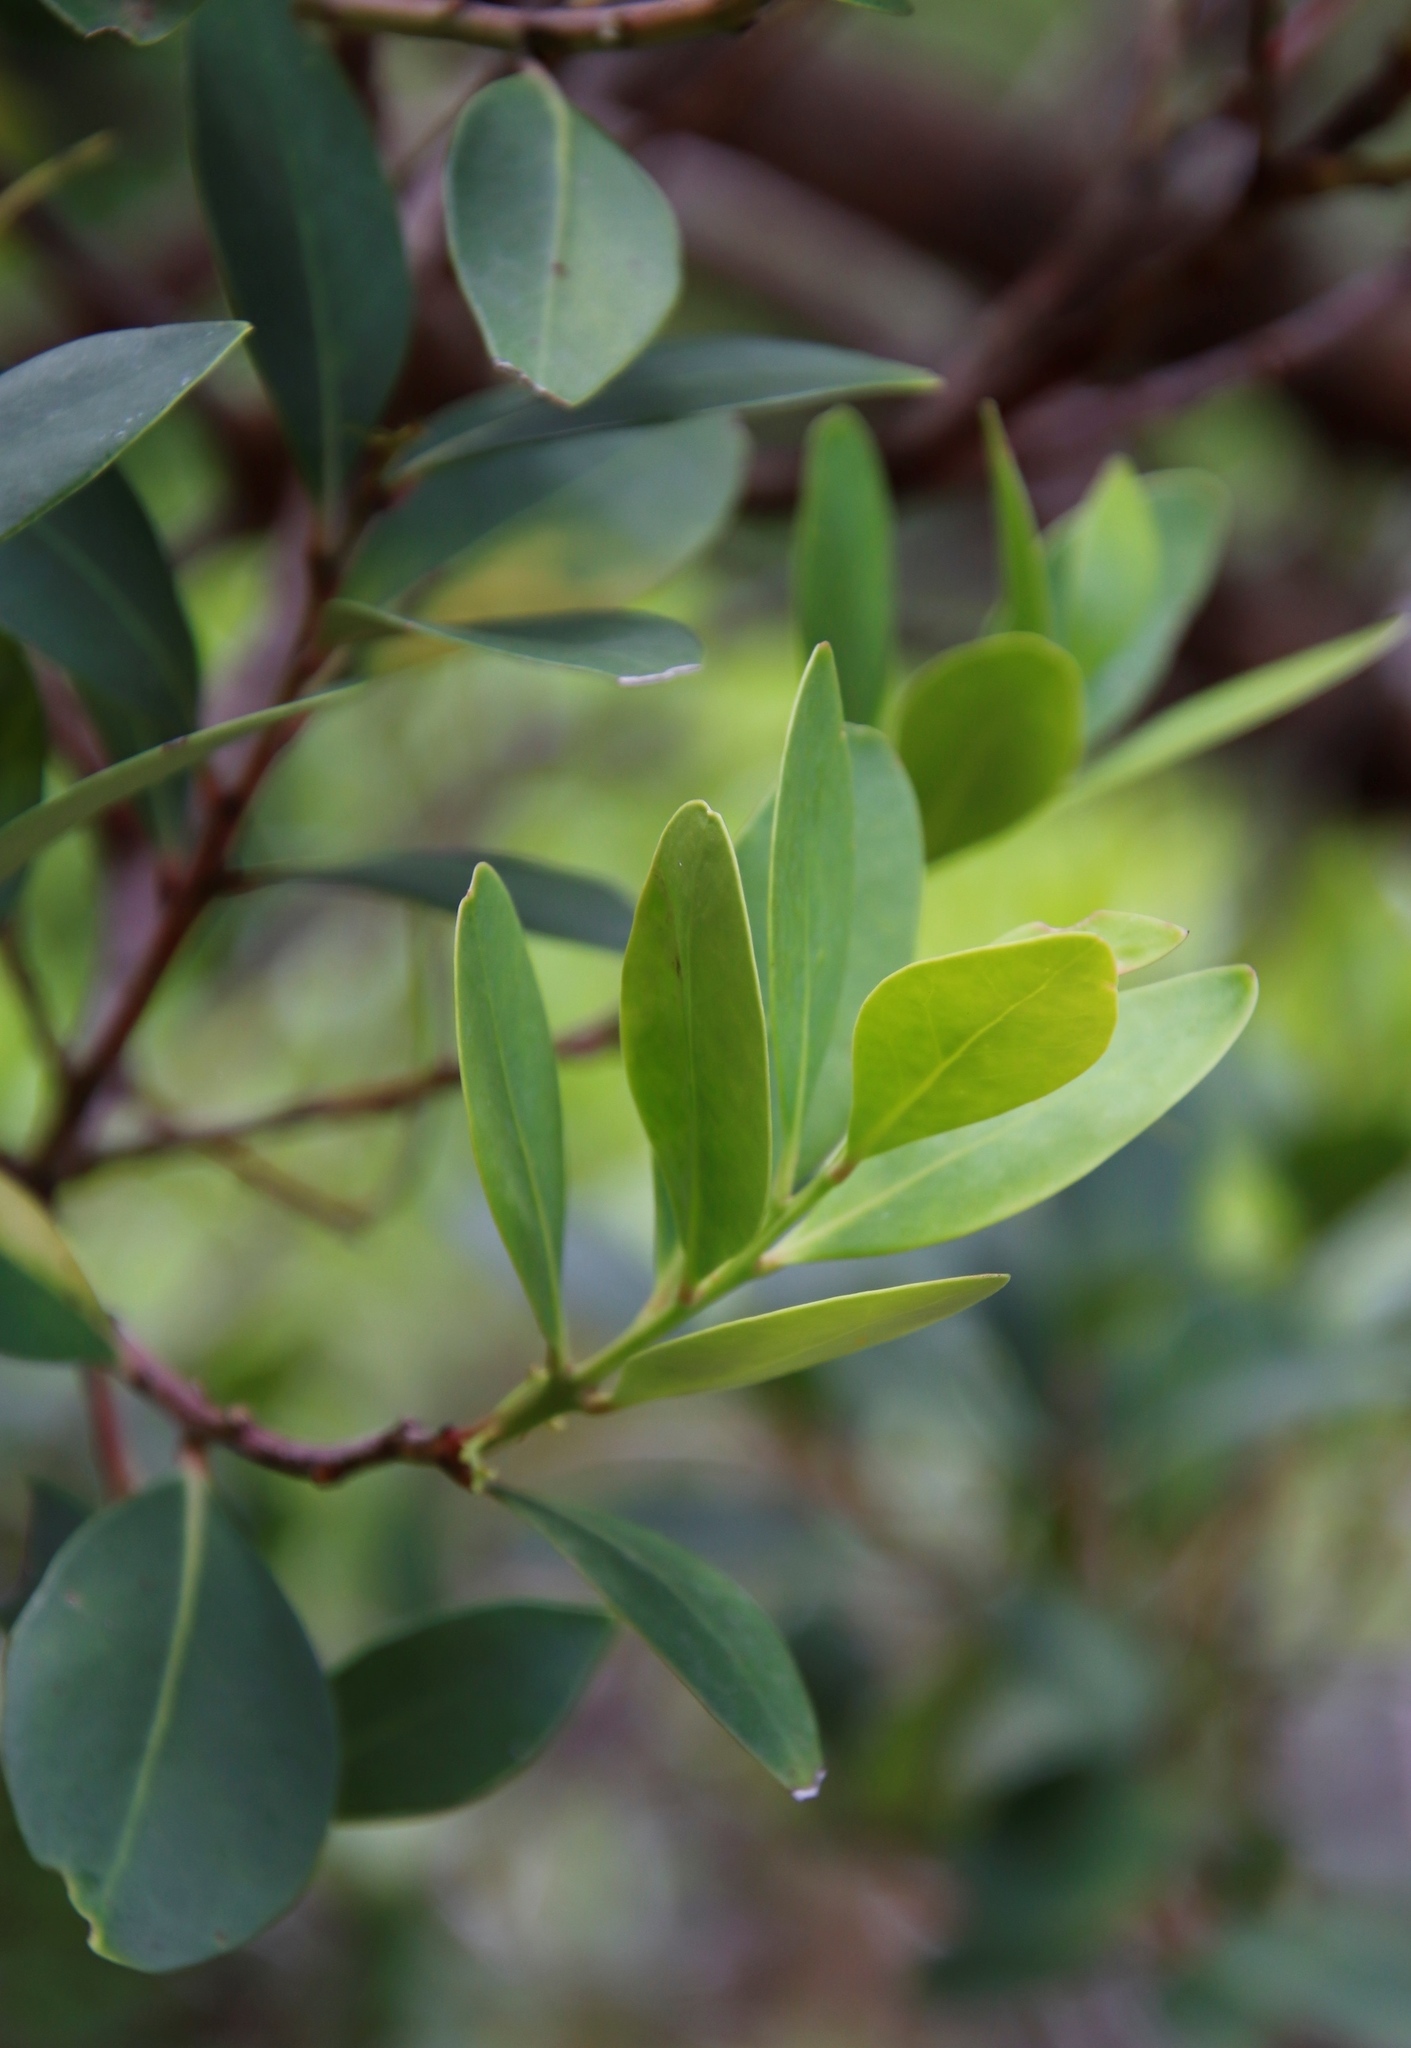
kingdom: Plantae
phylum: Tracheophyta
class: Magnoliopsida
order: Celastrales
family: Celastraceae
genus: Gymnosporia
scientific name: Gymnosporia laurina
